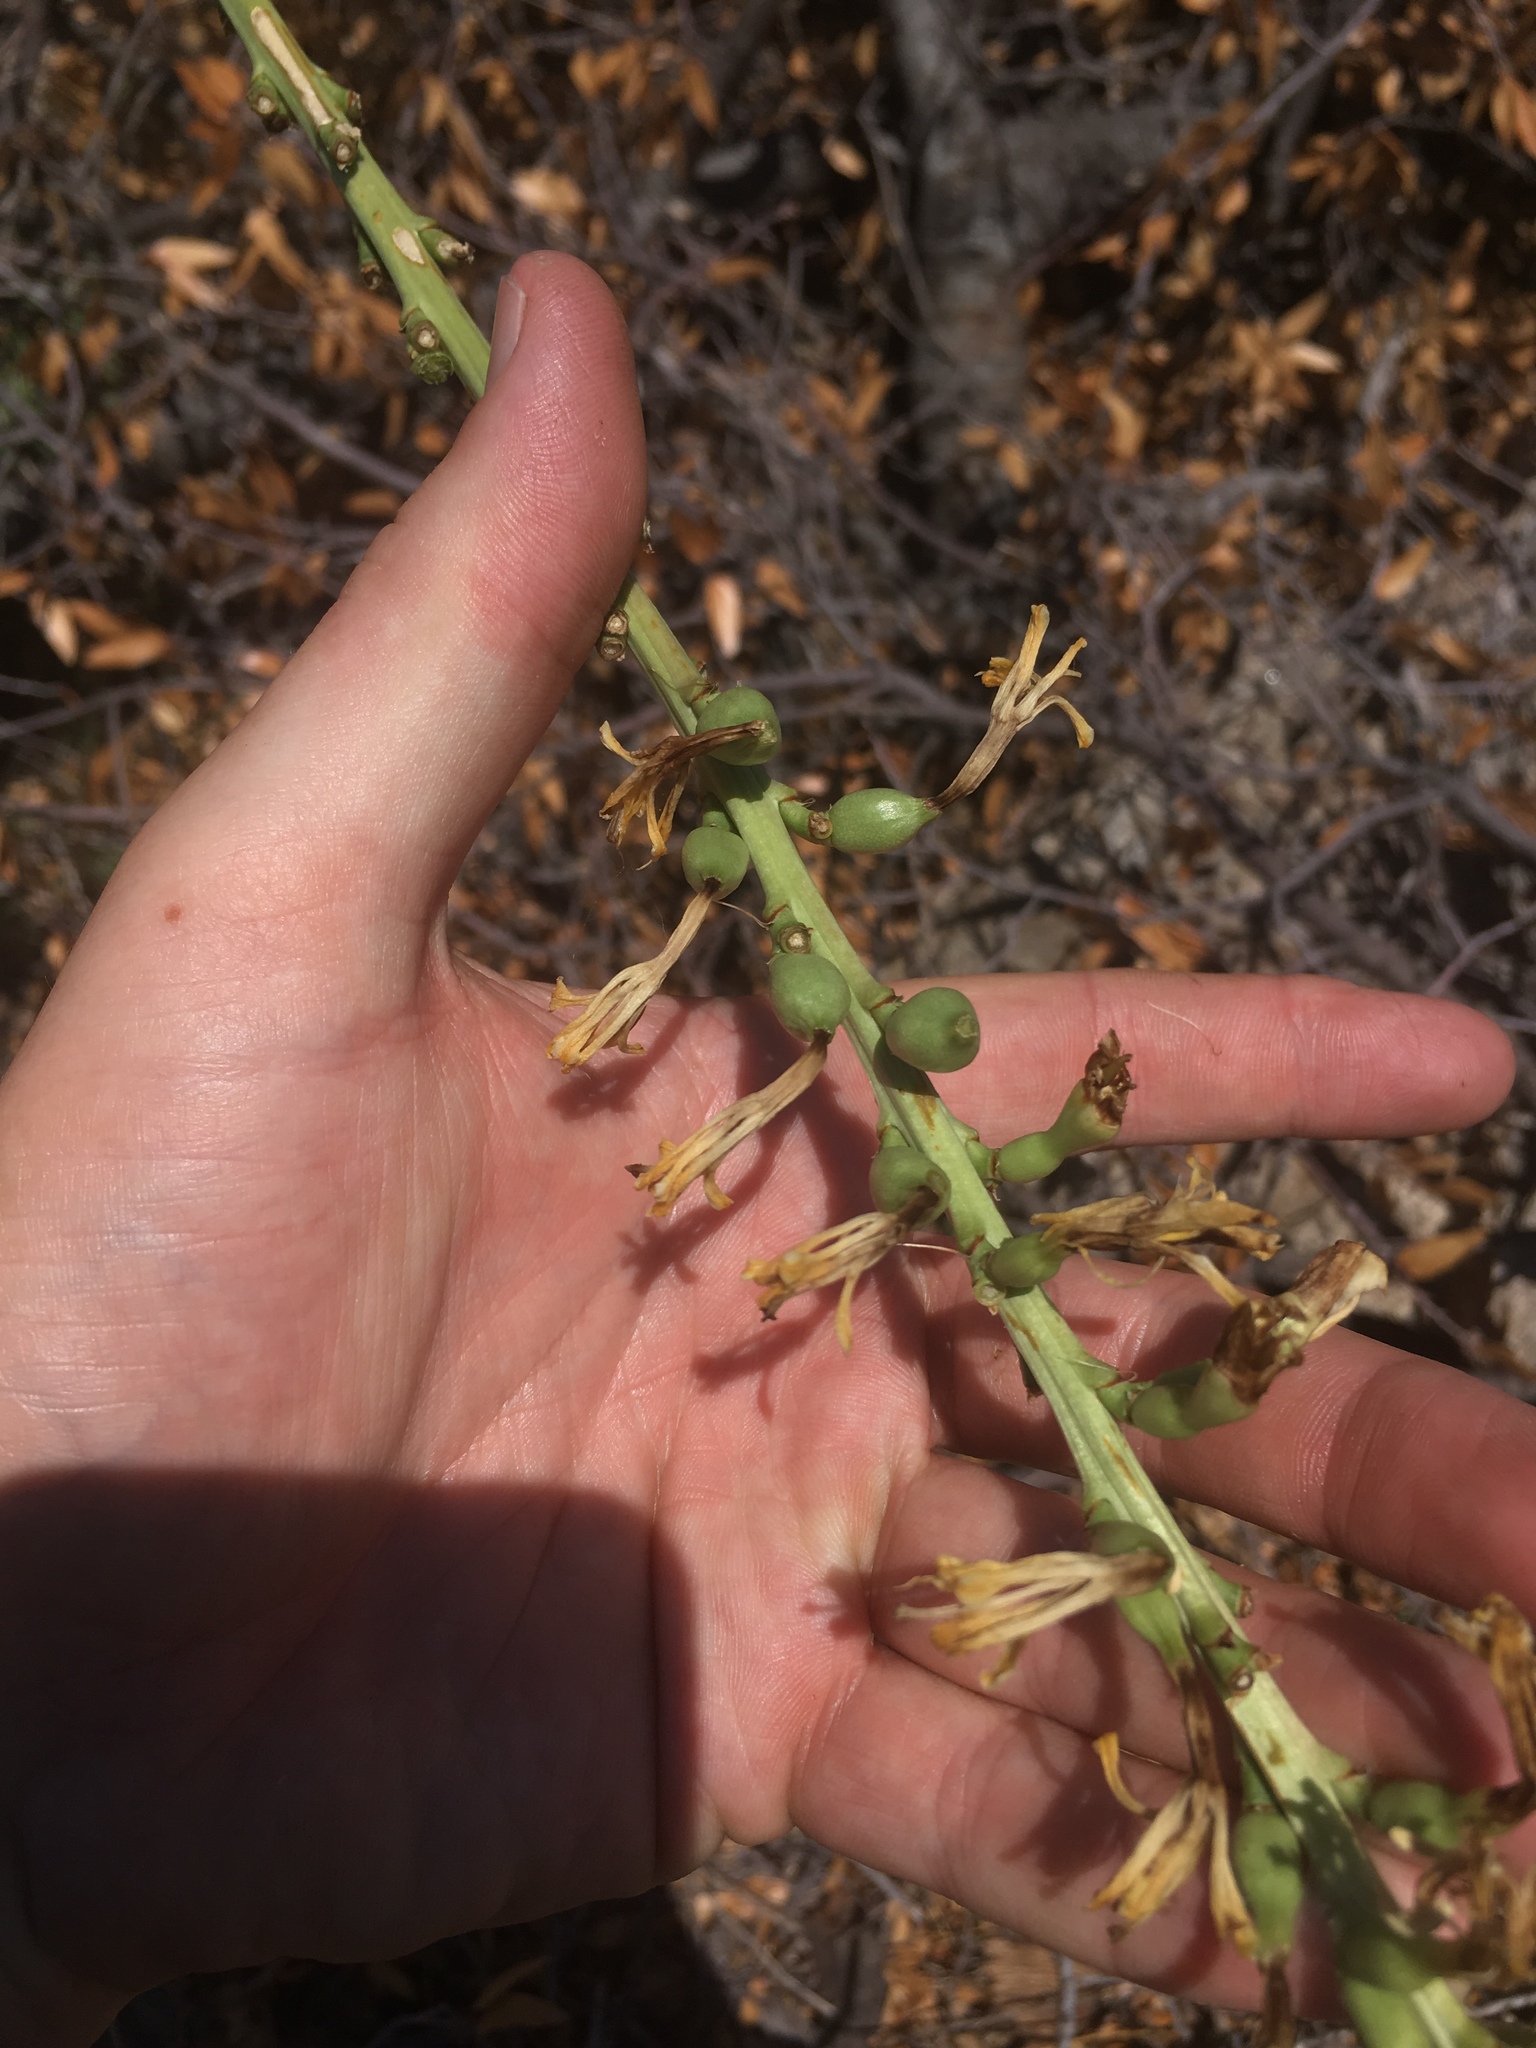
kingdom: Plantae
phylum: Tracheophyta
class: Liliopsida
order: Asparagales
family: Asparagaceae
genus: Agave
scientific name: Agave schottii
